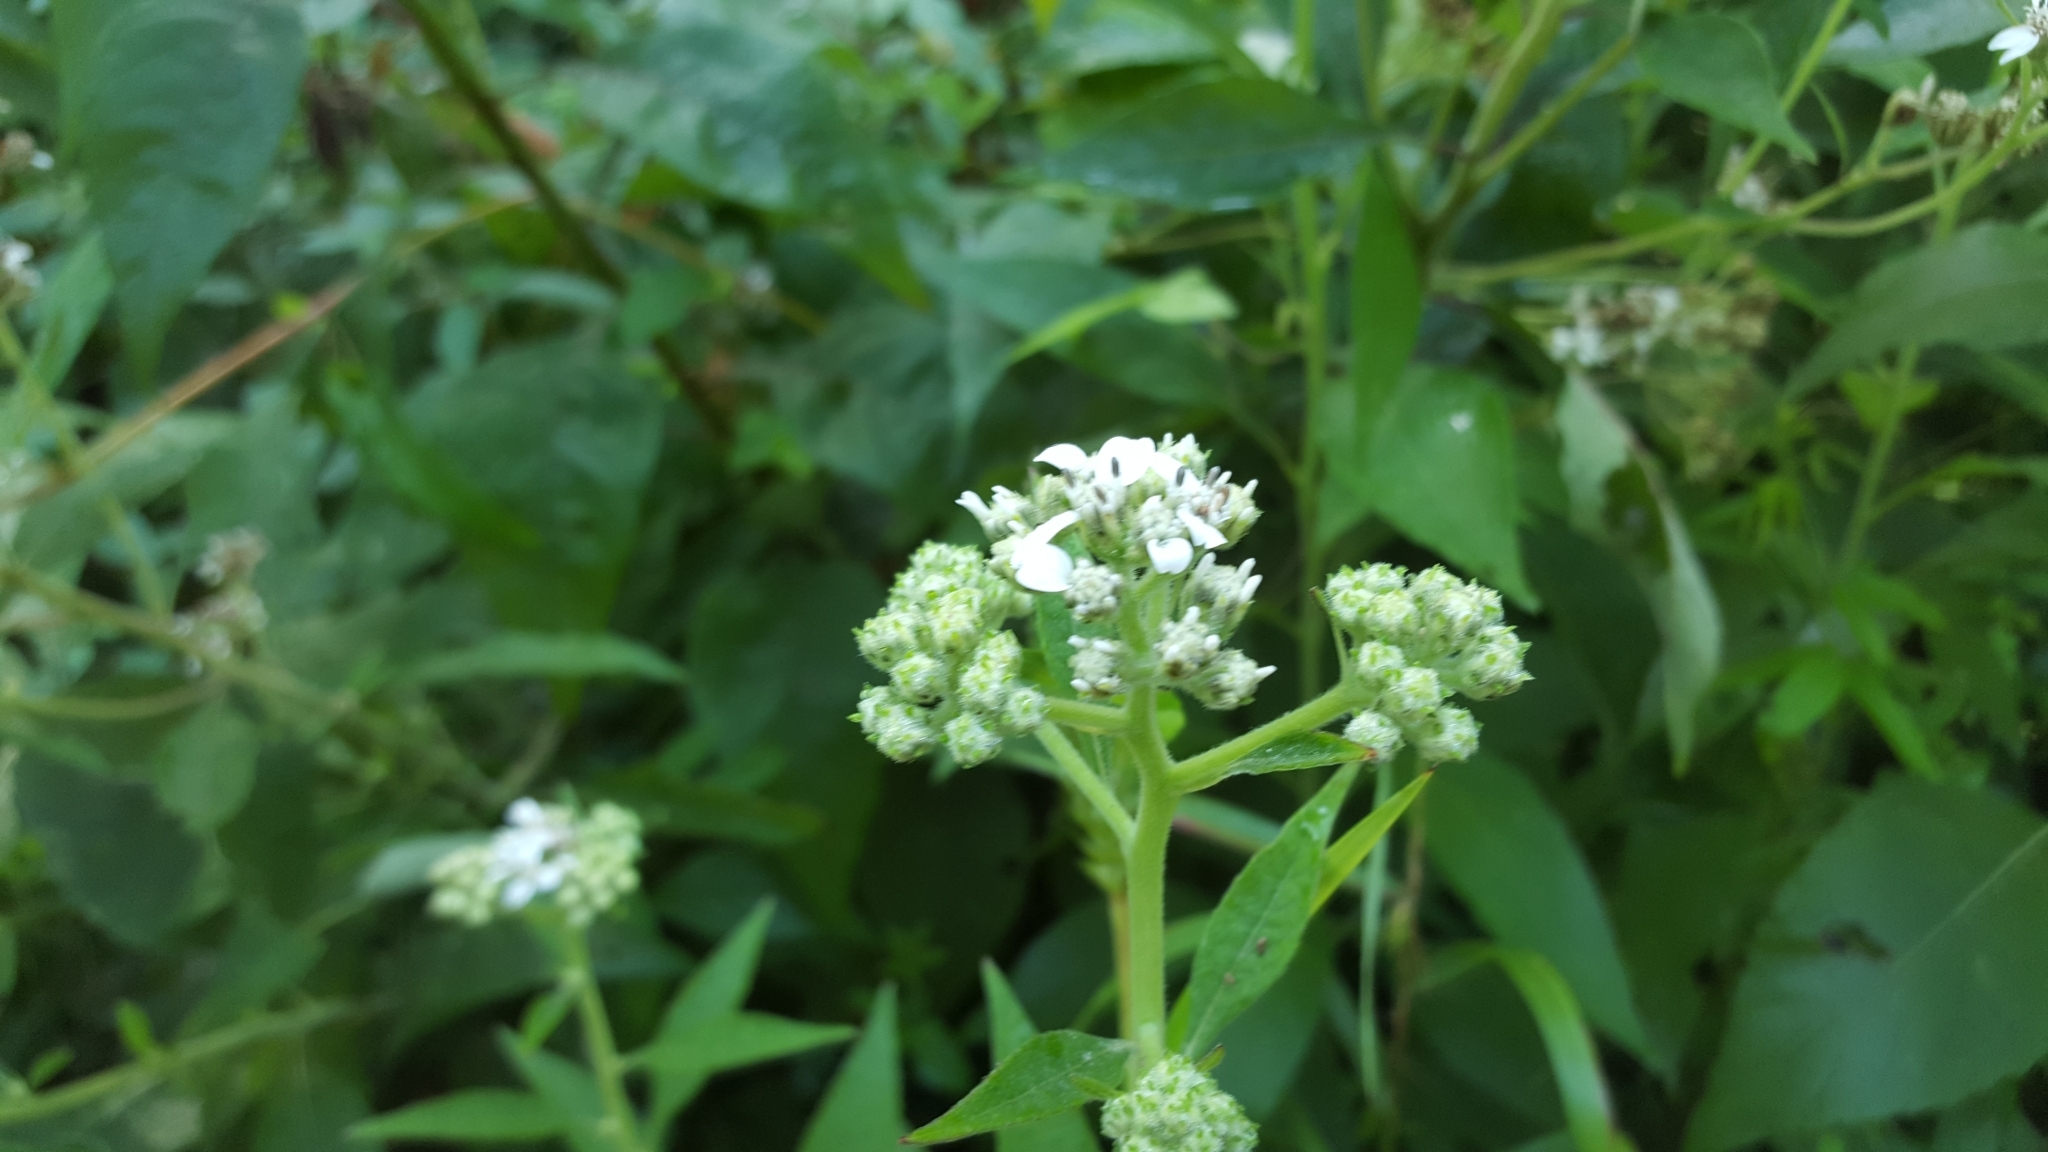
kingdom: Plantae
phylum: Tracheophyta
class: Magnoliopsida
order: Asterales
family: Asteraceae
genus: Verbesina
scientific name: Verbesina virginica
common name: Frostweed
